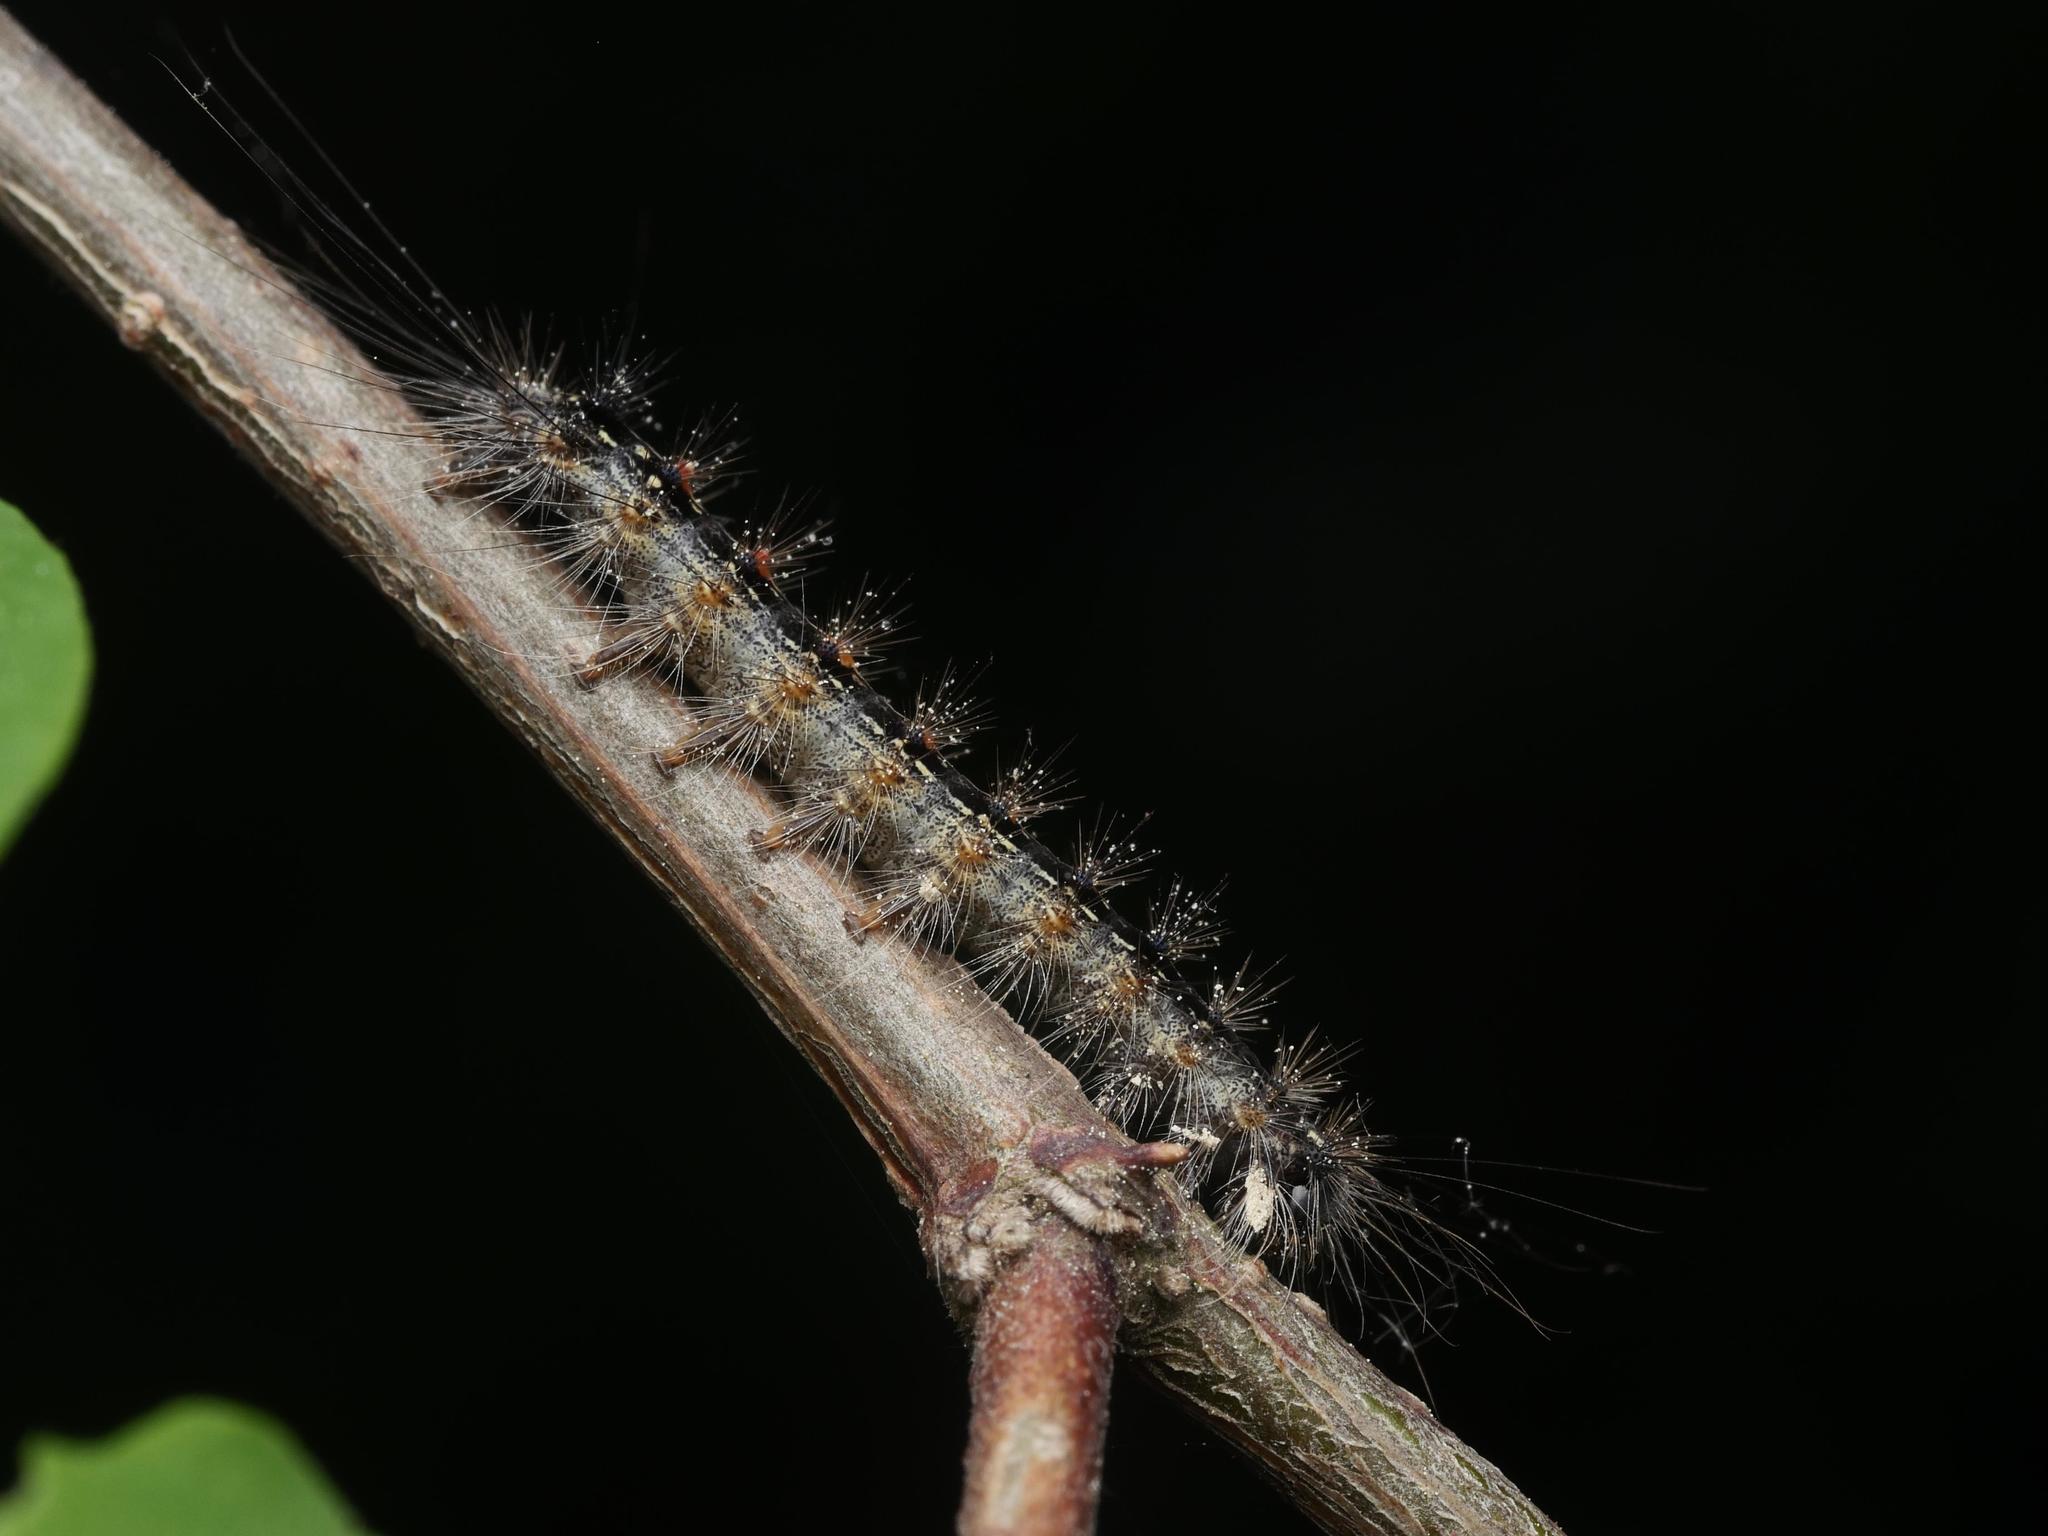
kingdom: Animalia
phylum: Arthropoda
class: Insecta
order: Lepidoptera
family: Erebidae
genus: Lymantria
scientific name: Lymantria dispar
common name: Gypsy moth
